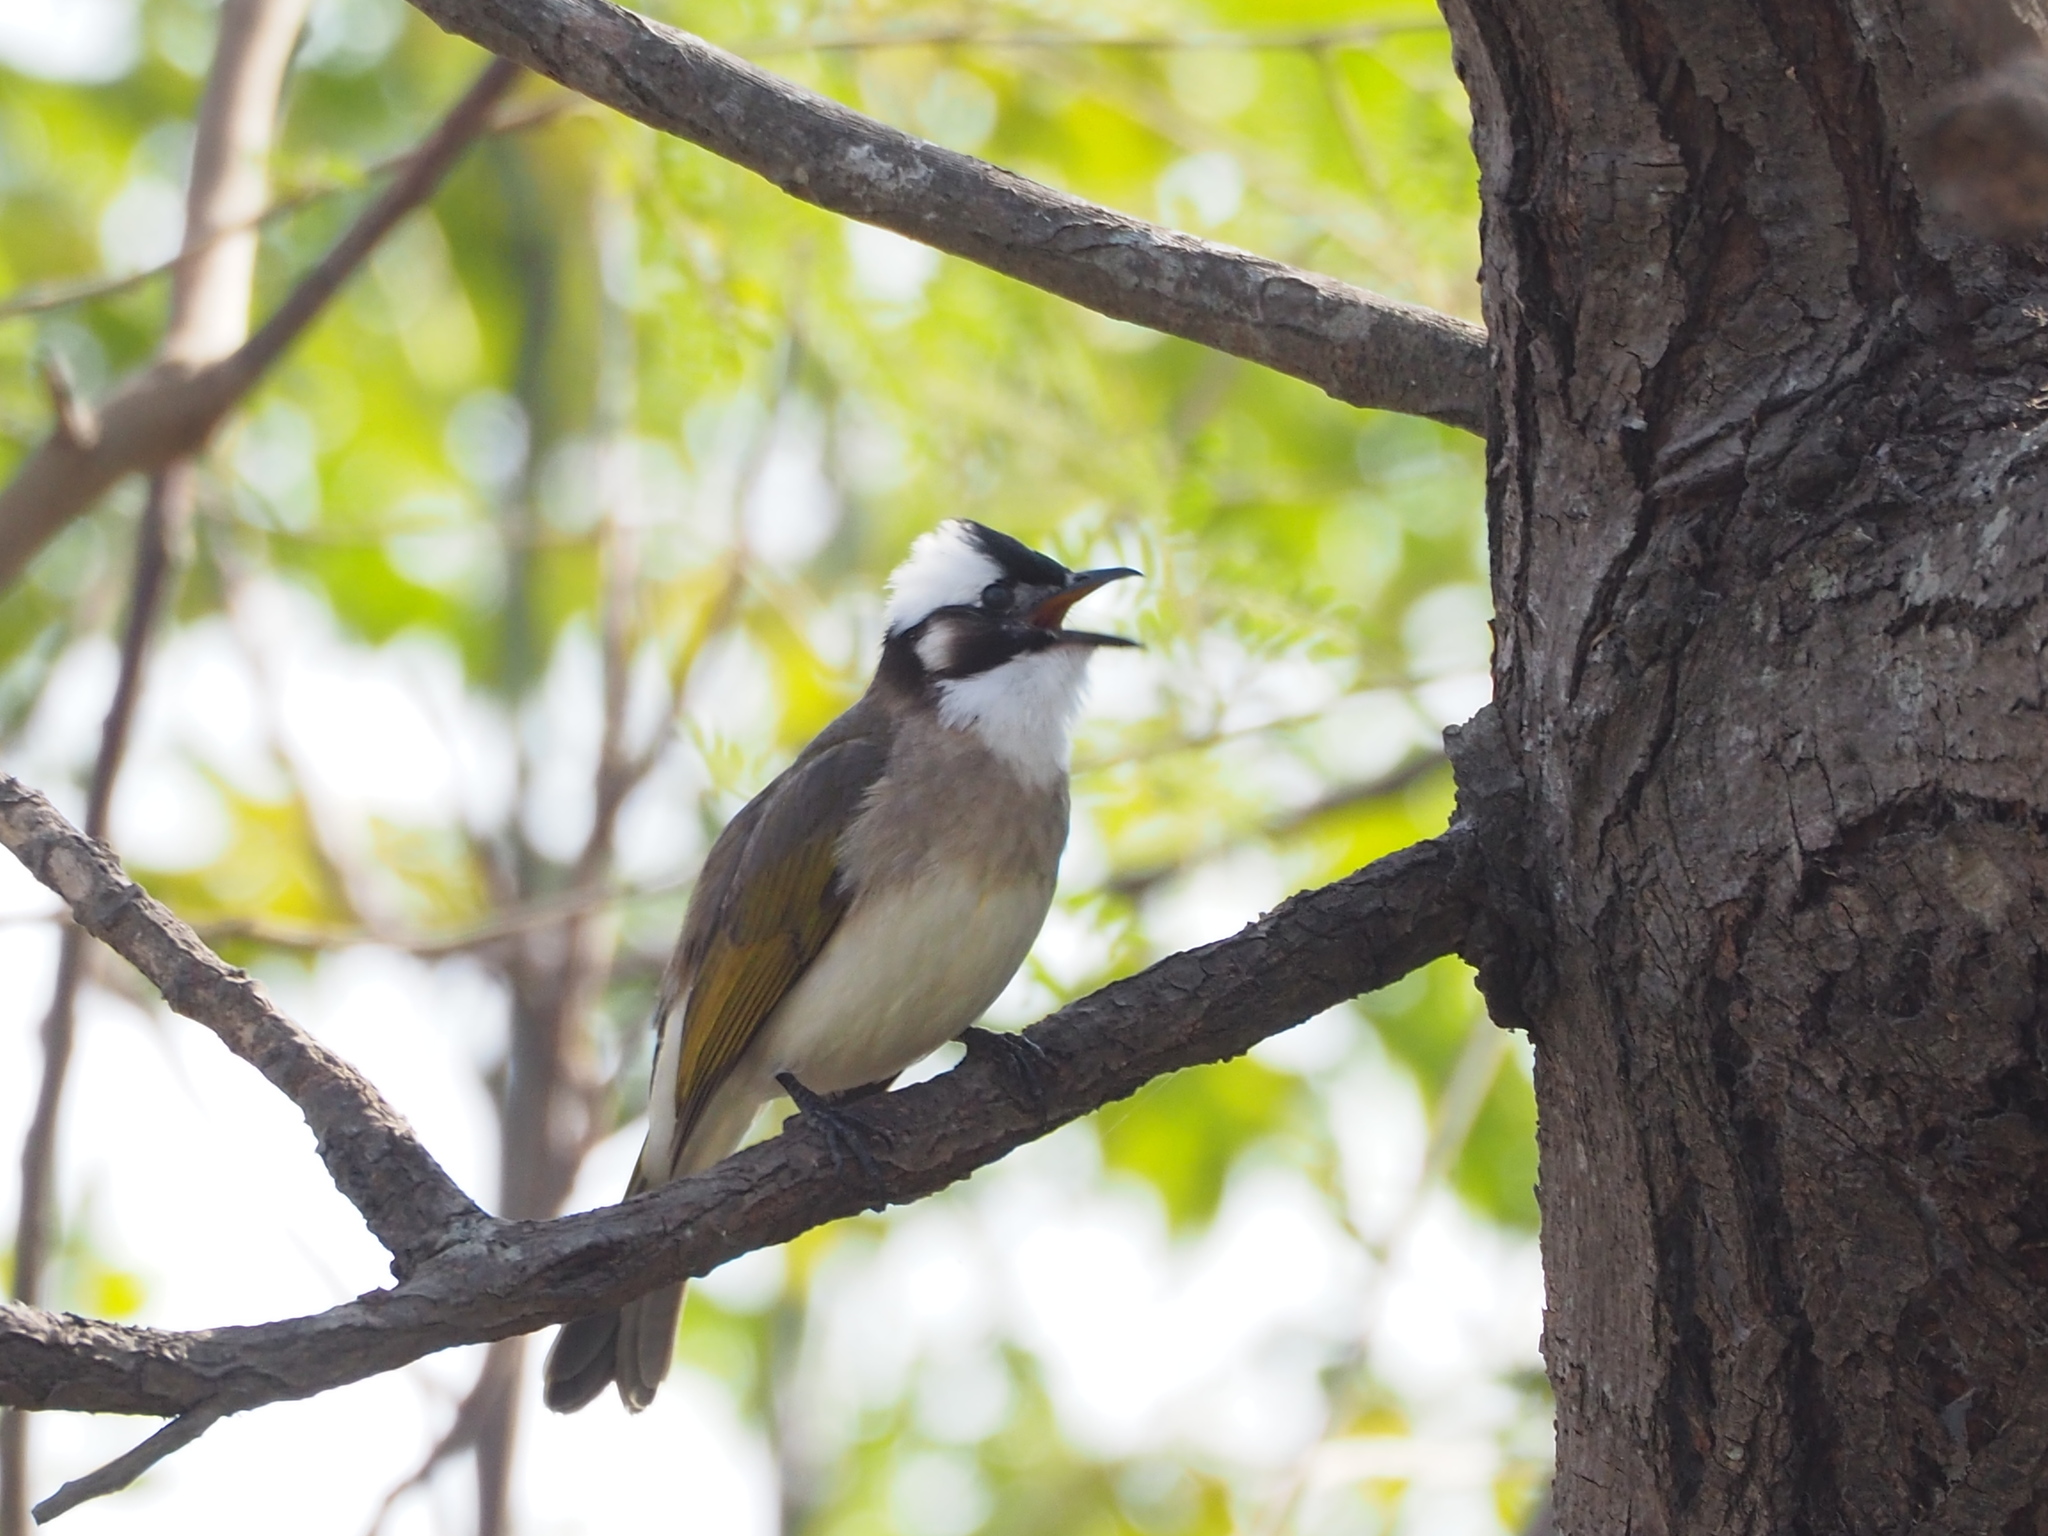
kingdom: Animalia
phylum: Chordata
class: Aves
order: Passeriformes
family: Pycnonotidae
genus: Pycnonotus
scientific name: Pycnonotus sinensis
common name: Light-vented bulbul
